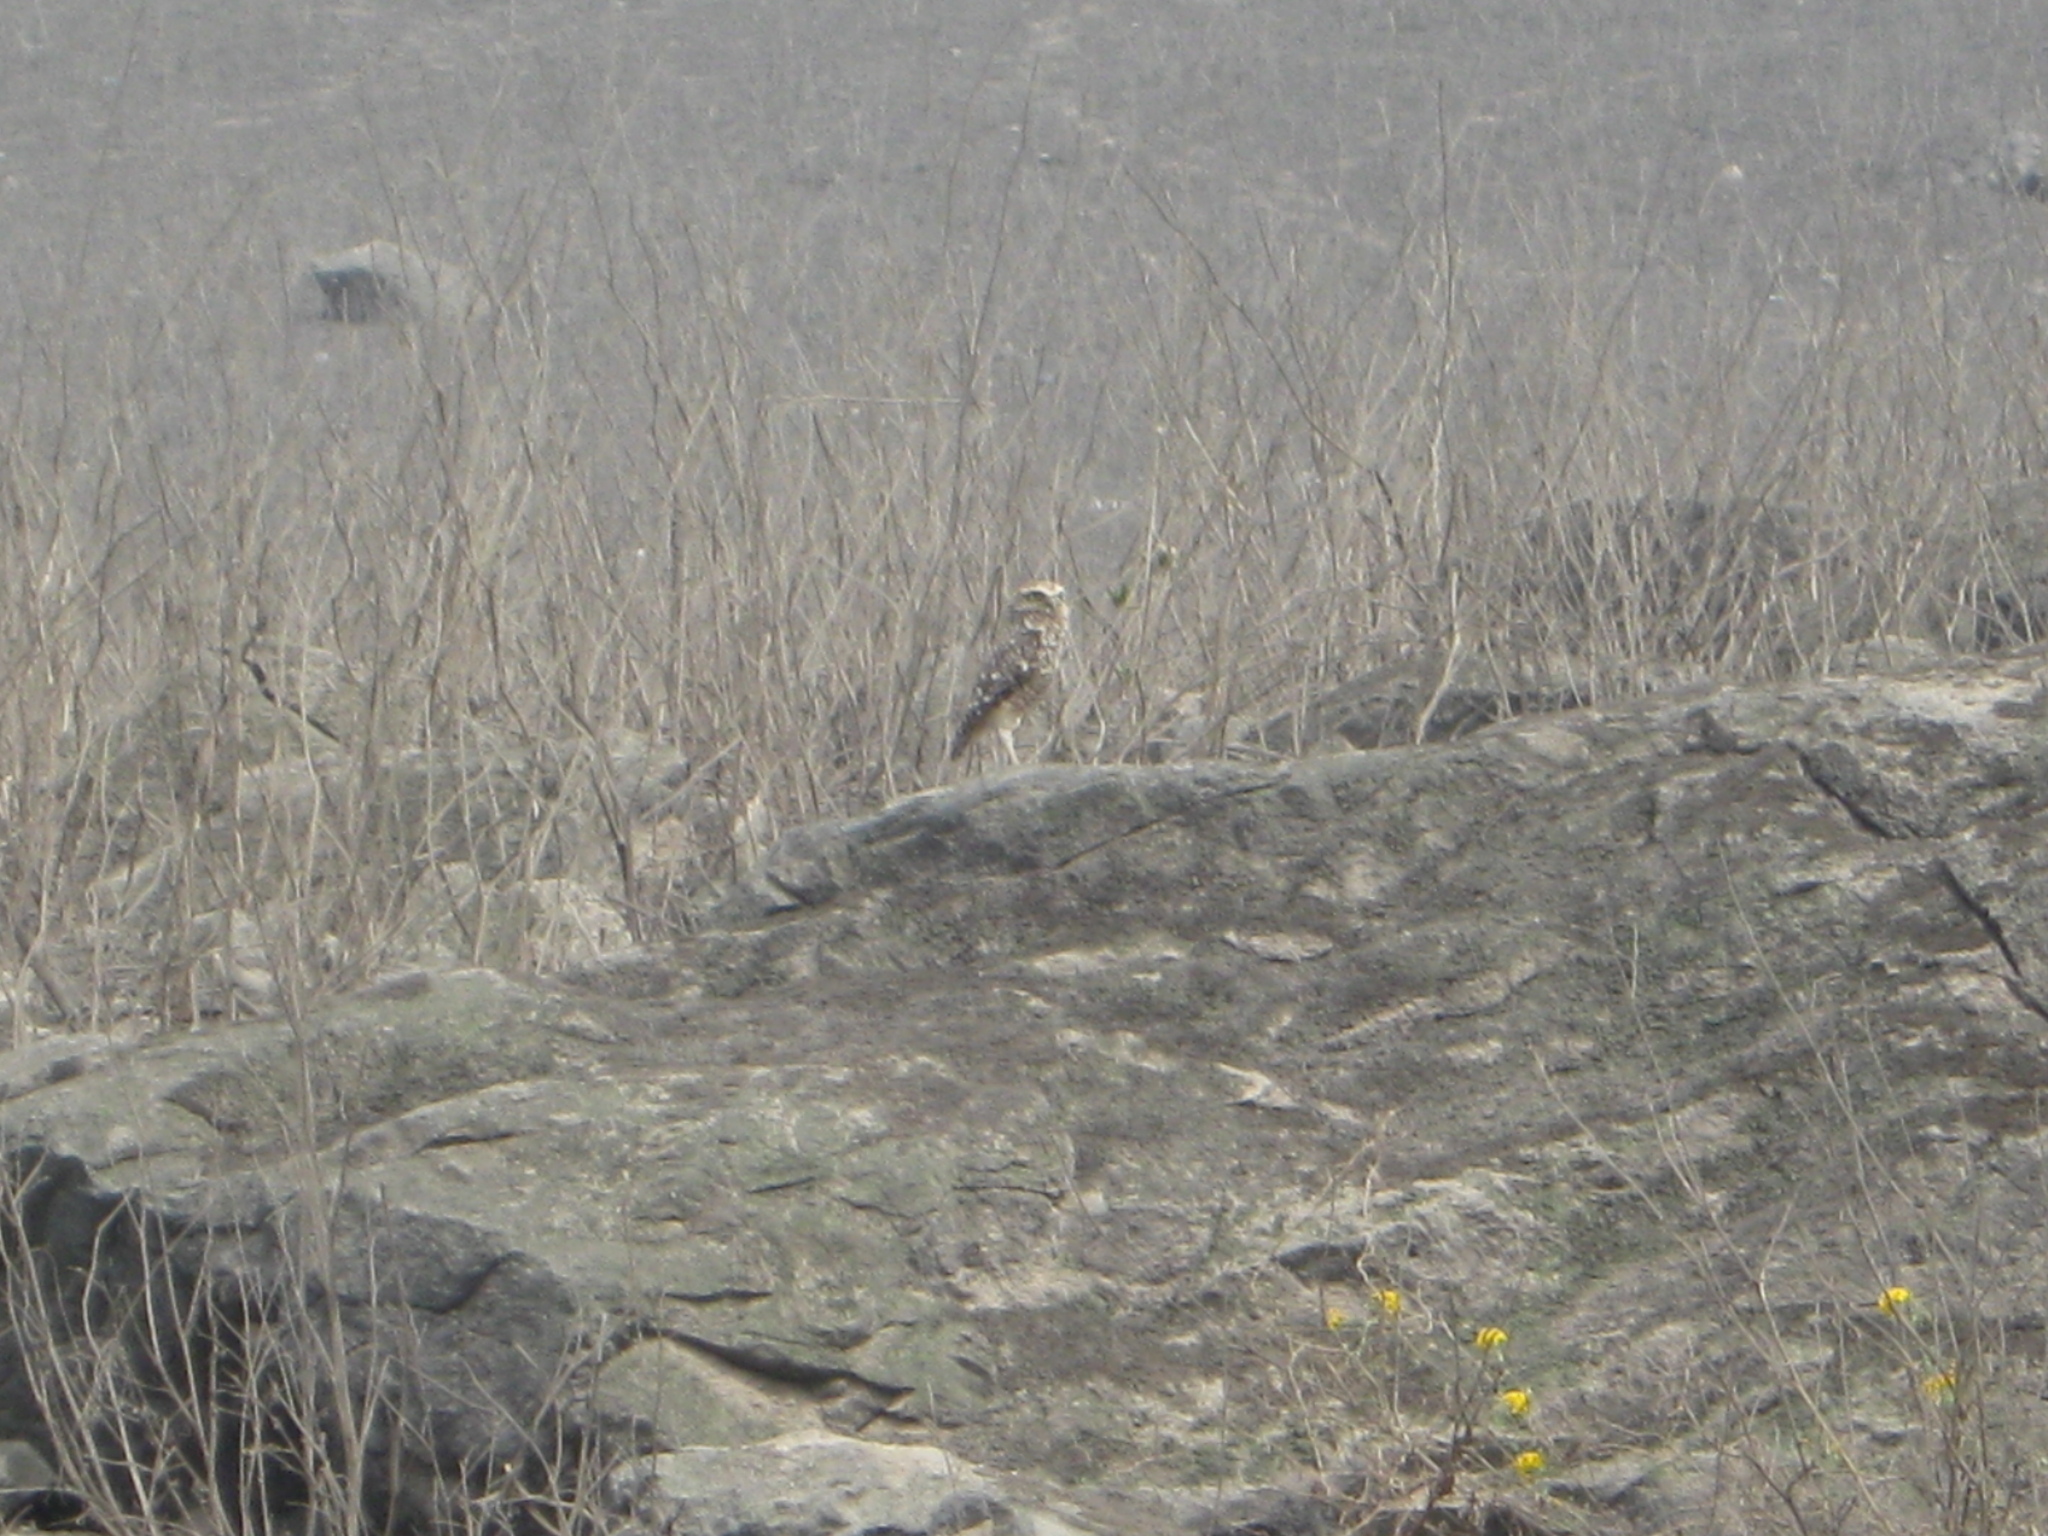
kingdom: Animalia
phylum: Chordata
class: Aves
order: Strigiformes
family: Strigidae
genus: Athene
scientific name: Athene cunicularia
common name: Burrowing owl
